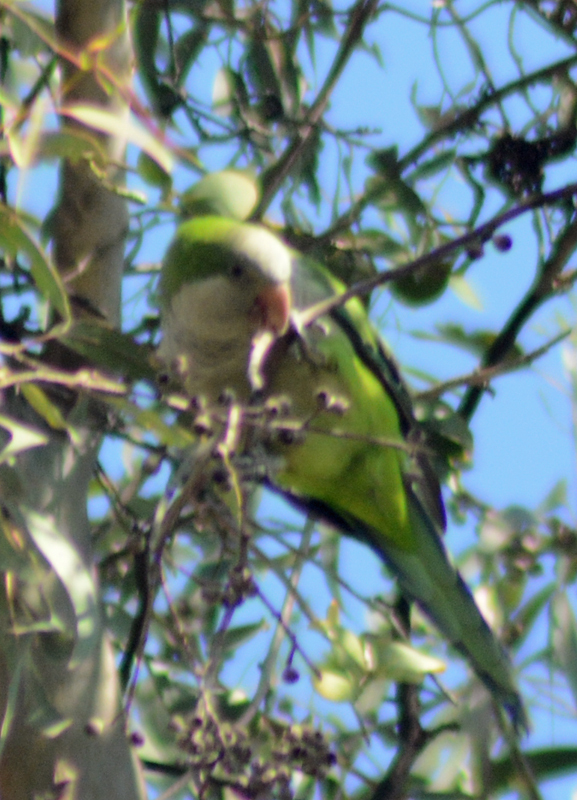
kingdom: Animalia
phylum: Chordata
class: Aves
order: Psittaciformes
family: Psittacidae
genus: Myiopsitta
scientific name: Myiopsitta monachus
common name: Monk parakeet
